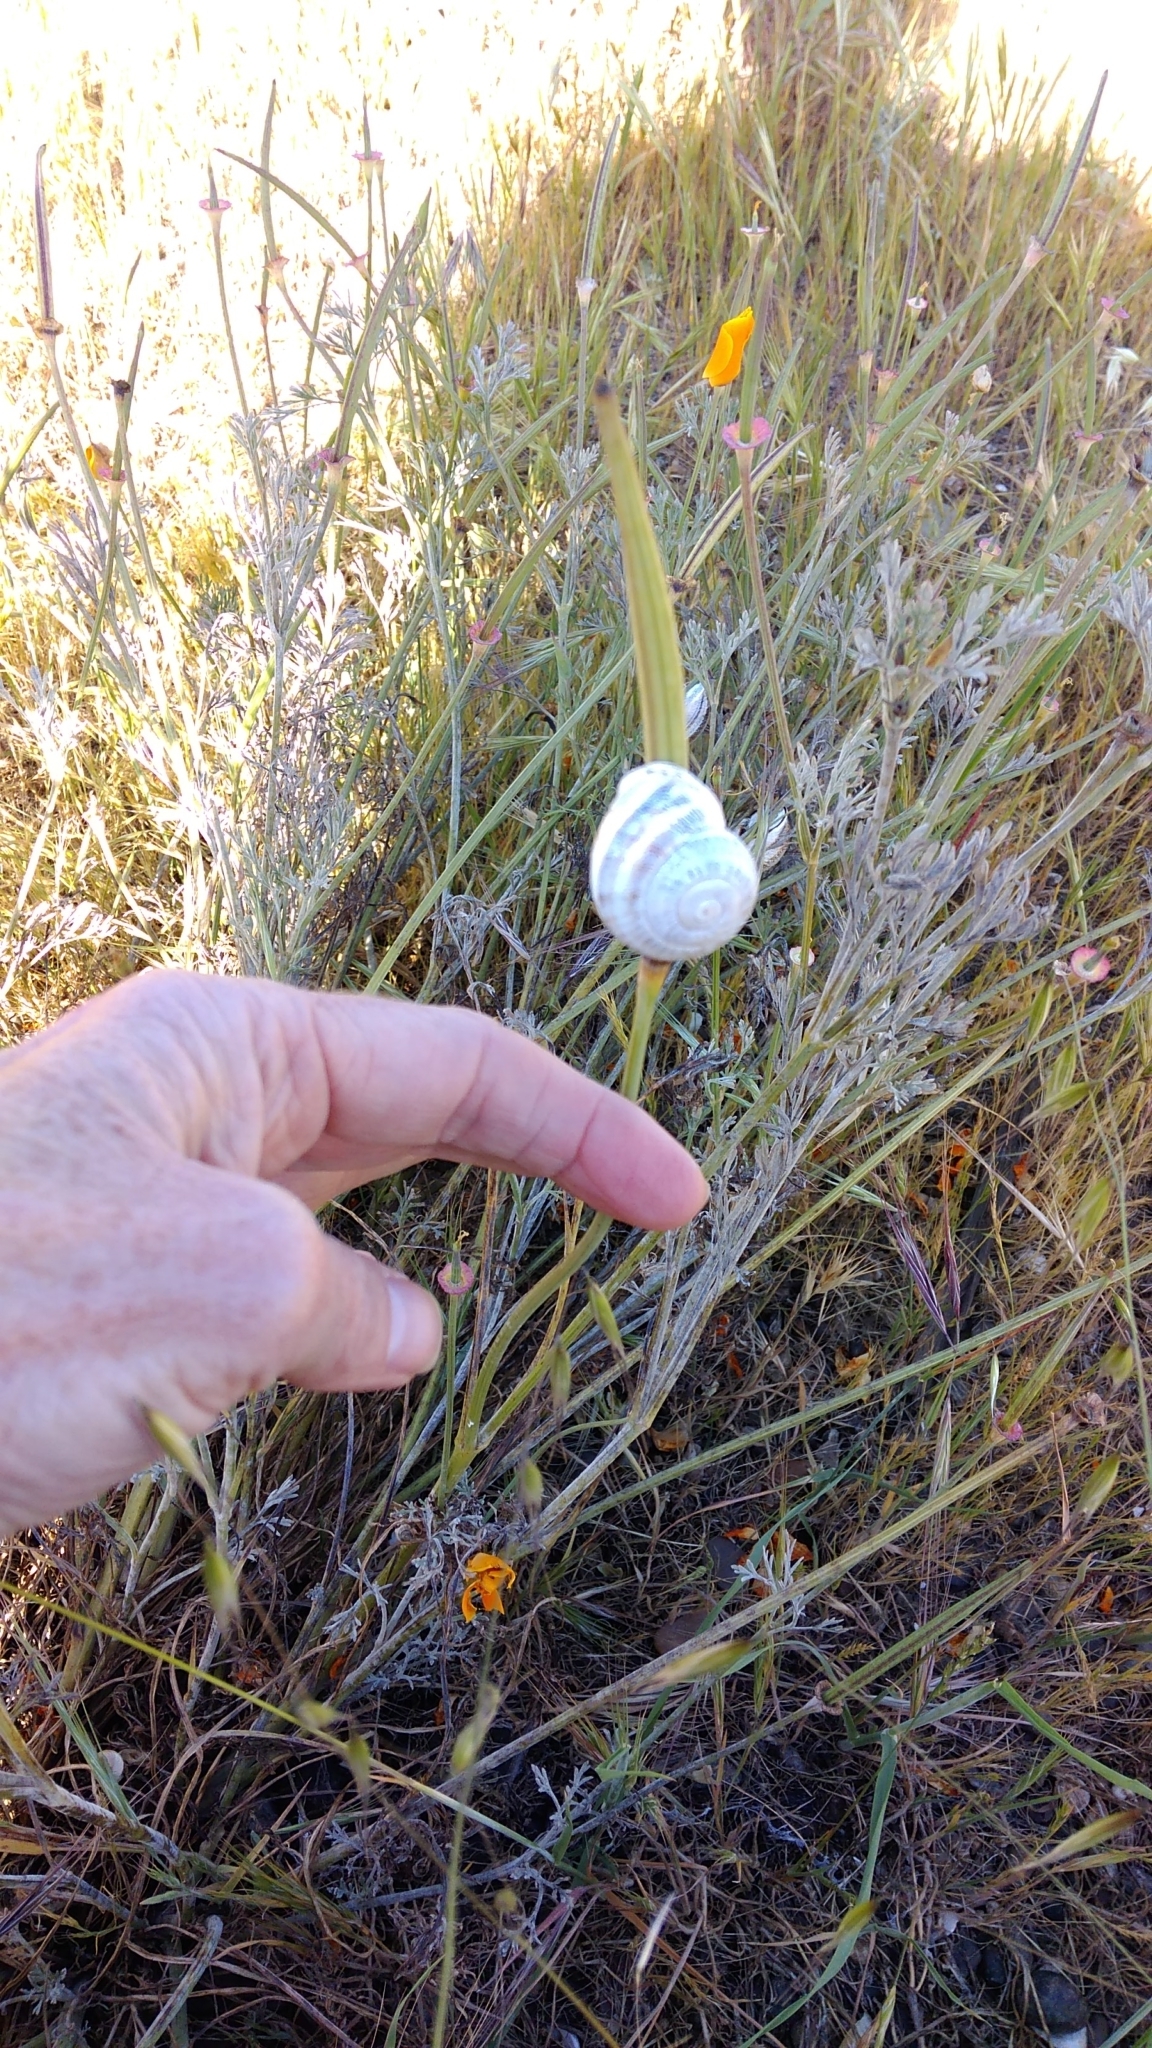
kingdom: Animalia
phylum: Mollusca
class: Gastropoda
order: Stylommatophora
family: Helicidae
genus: Otala
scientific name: Otala lactea
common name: Milk snail
